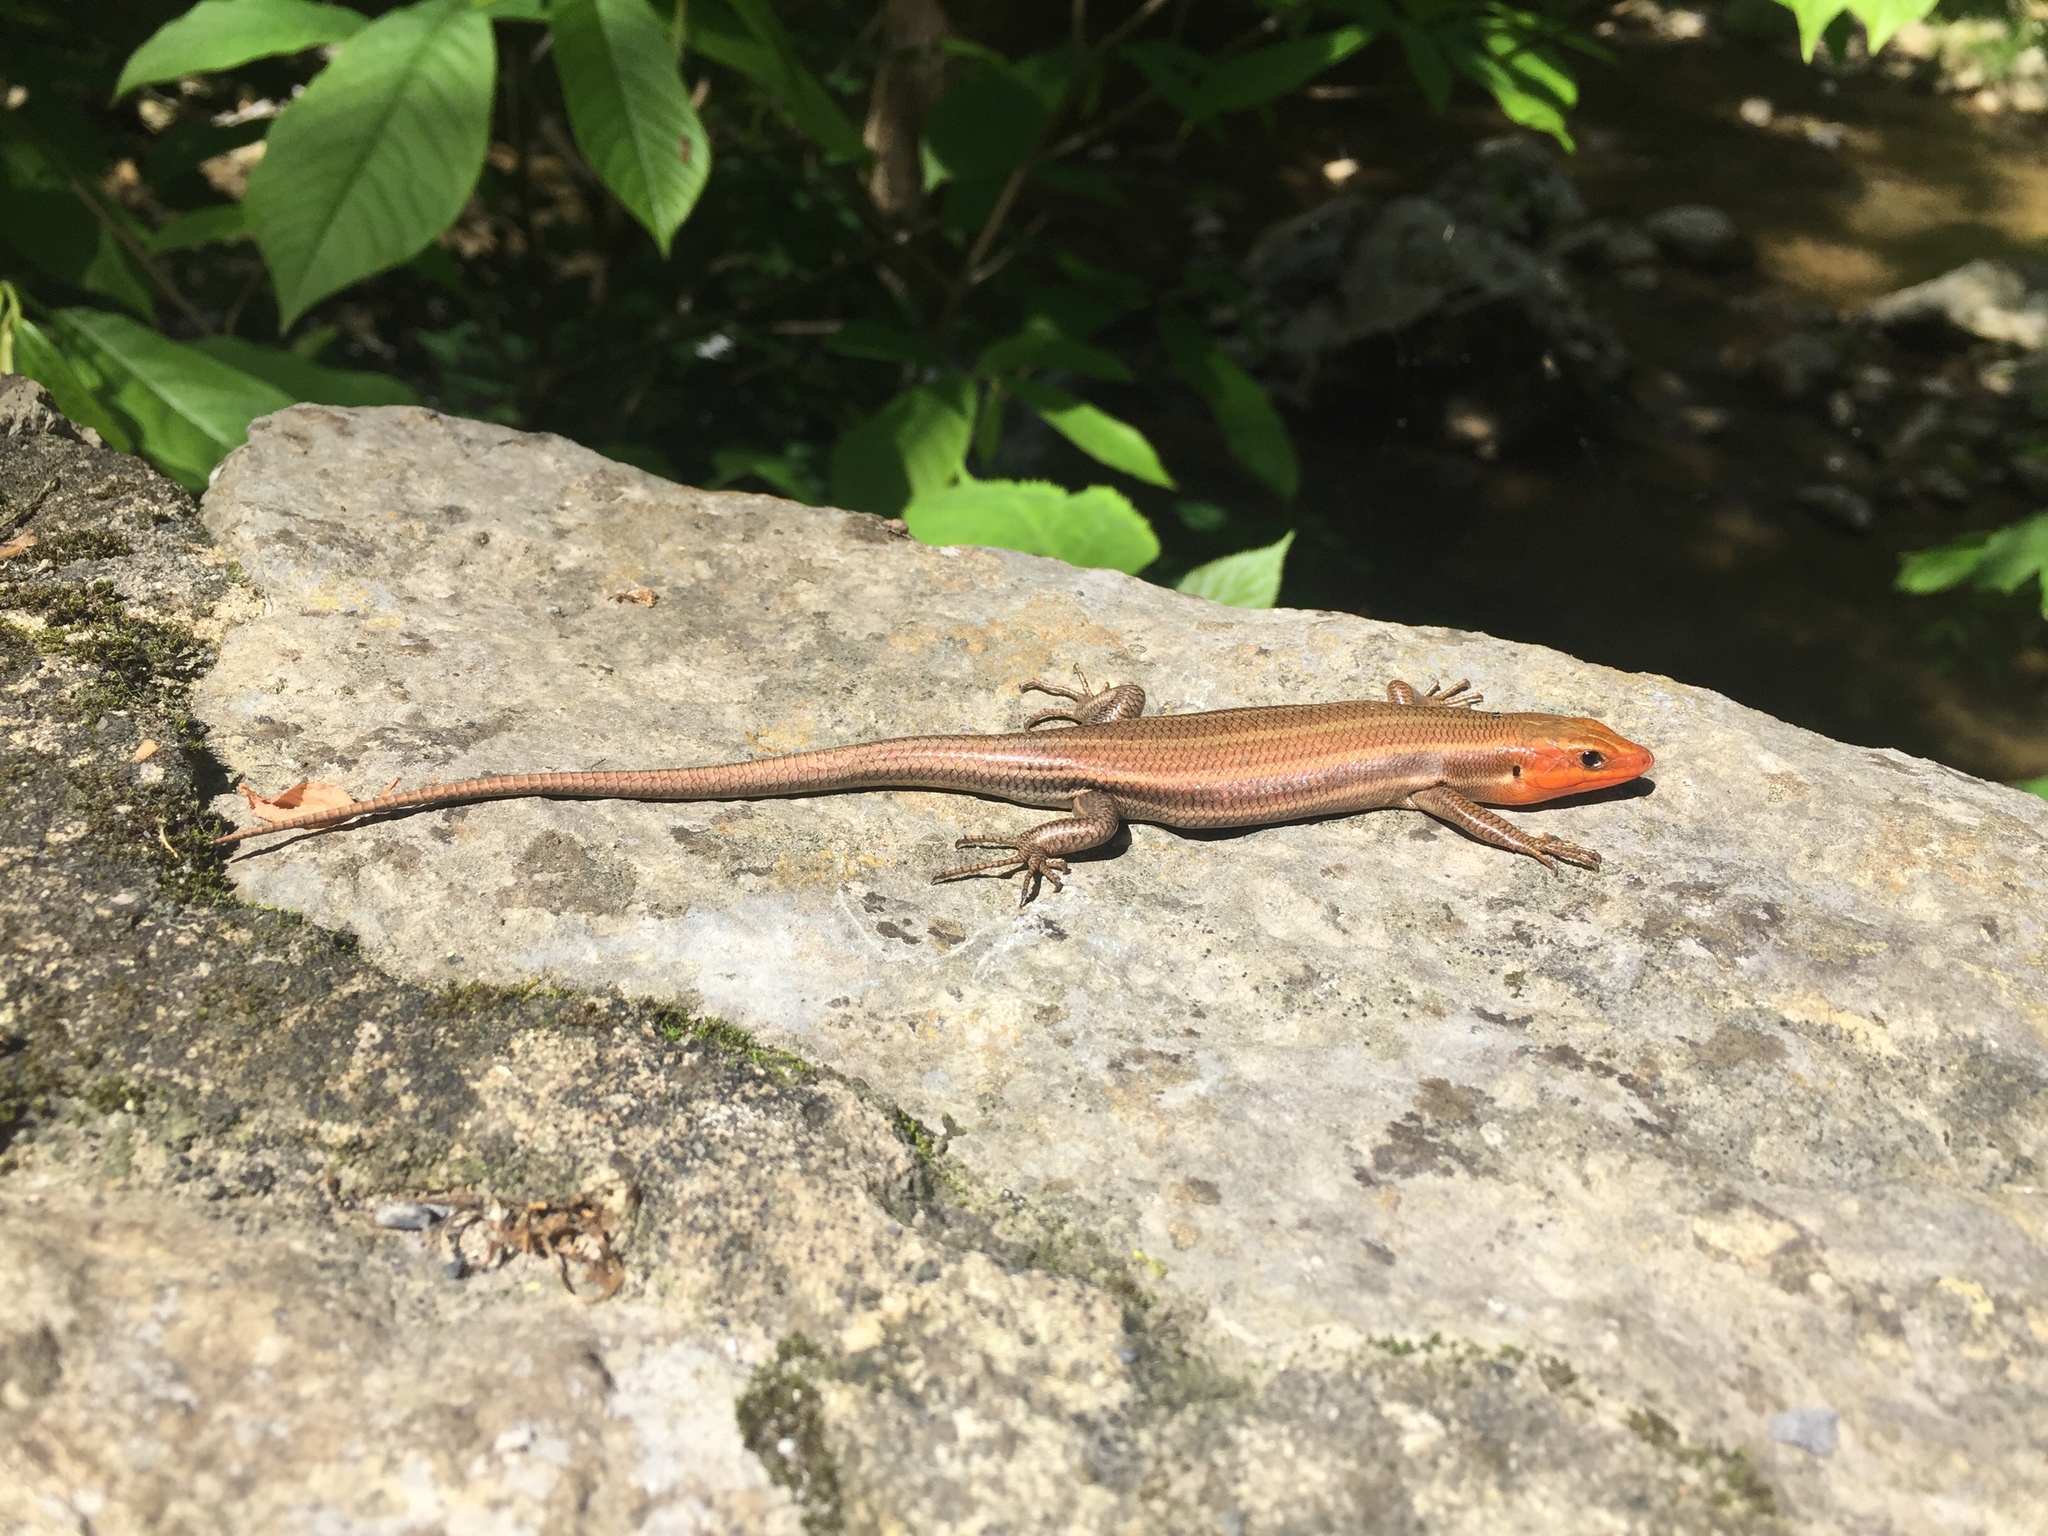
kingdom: Animalia
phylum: Chordata
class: Squamata
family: Scincidae
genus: Plestiodon
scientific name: Plestiodon fasciatus
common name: Five-lined skink
